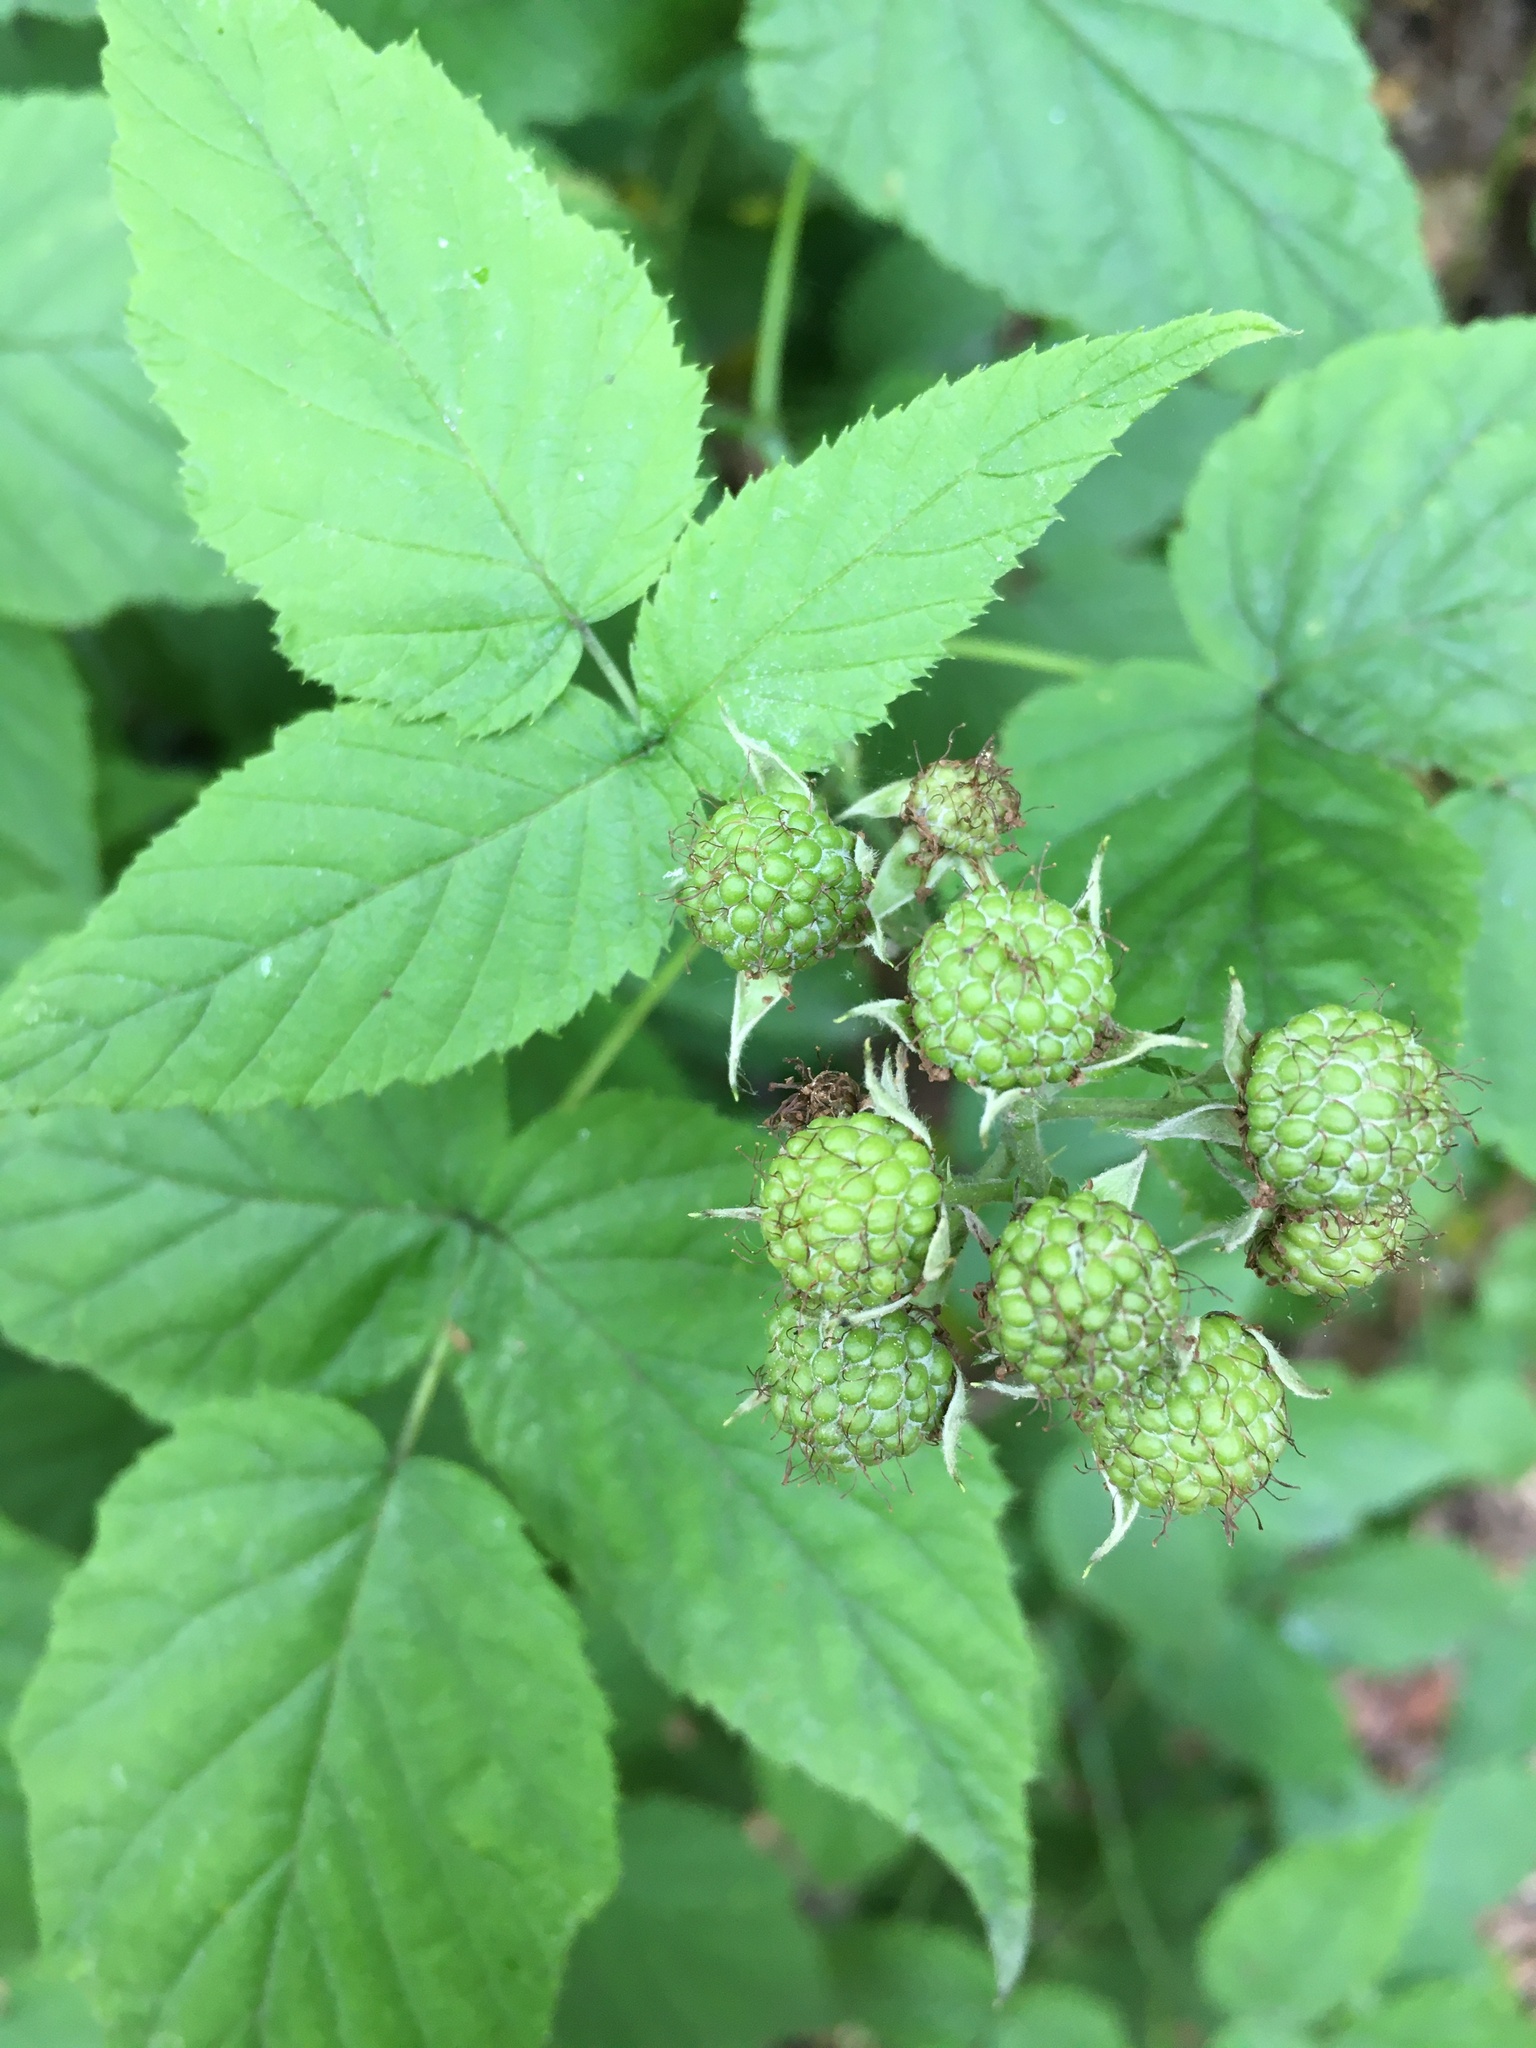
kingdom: Plantae
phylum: Tracheophyta
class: Magnoliopsida
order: Rosales
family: Rosaceae
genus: Rubus
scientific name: Rubus occidentalis
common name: Black raspberry
